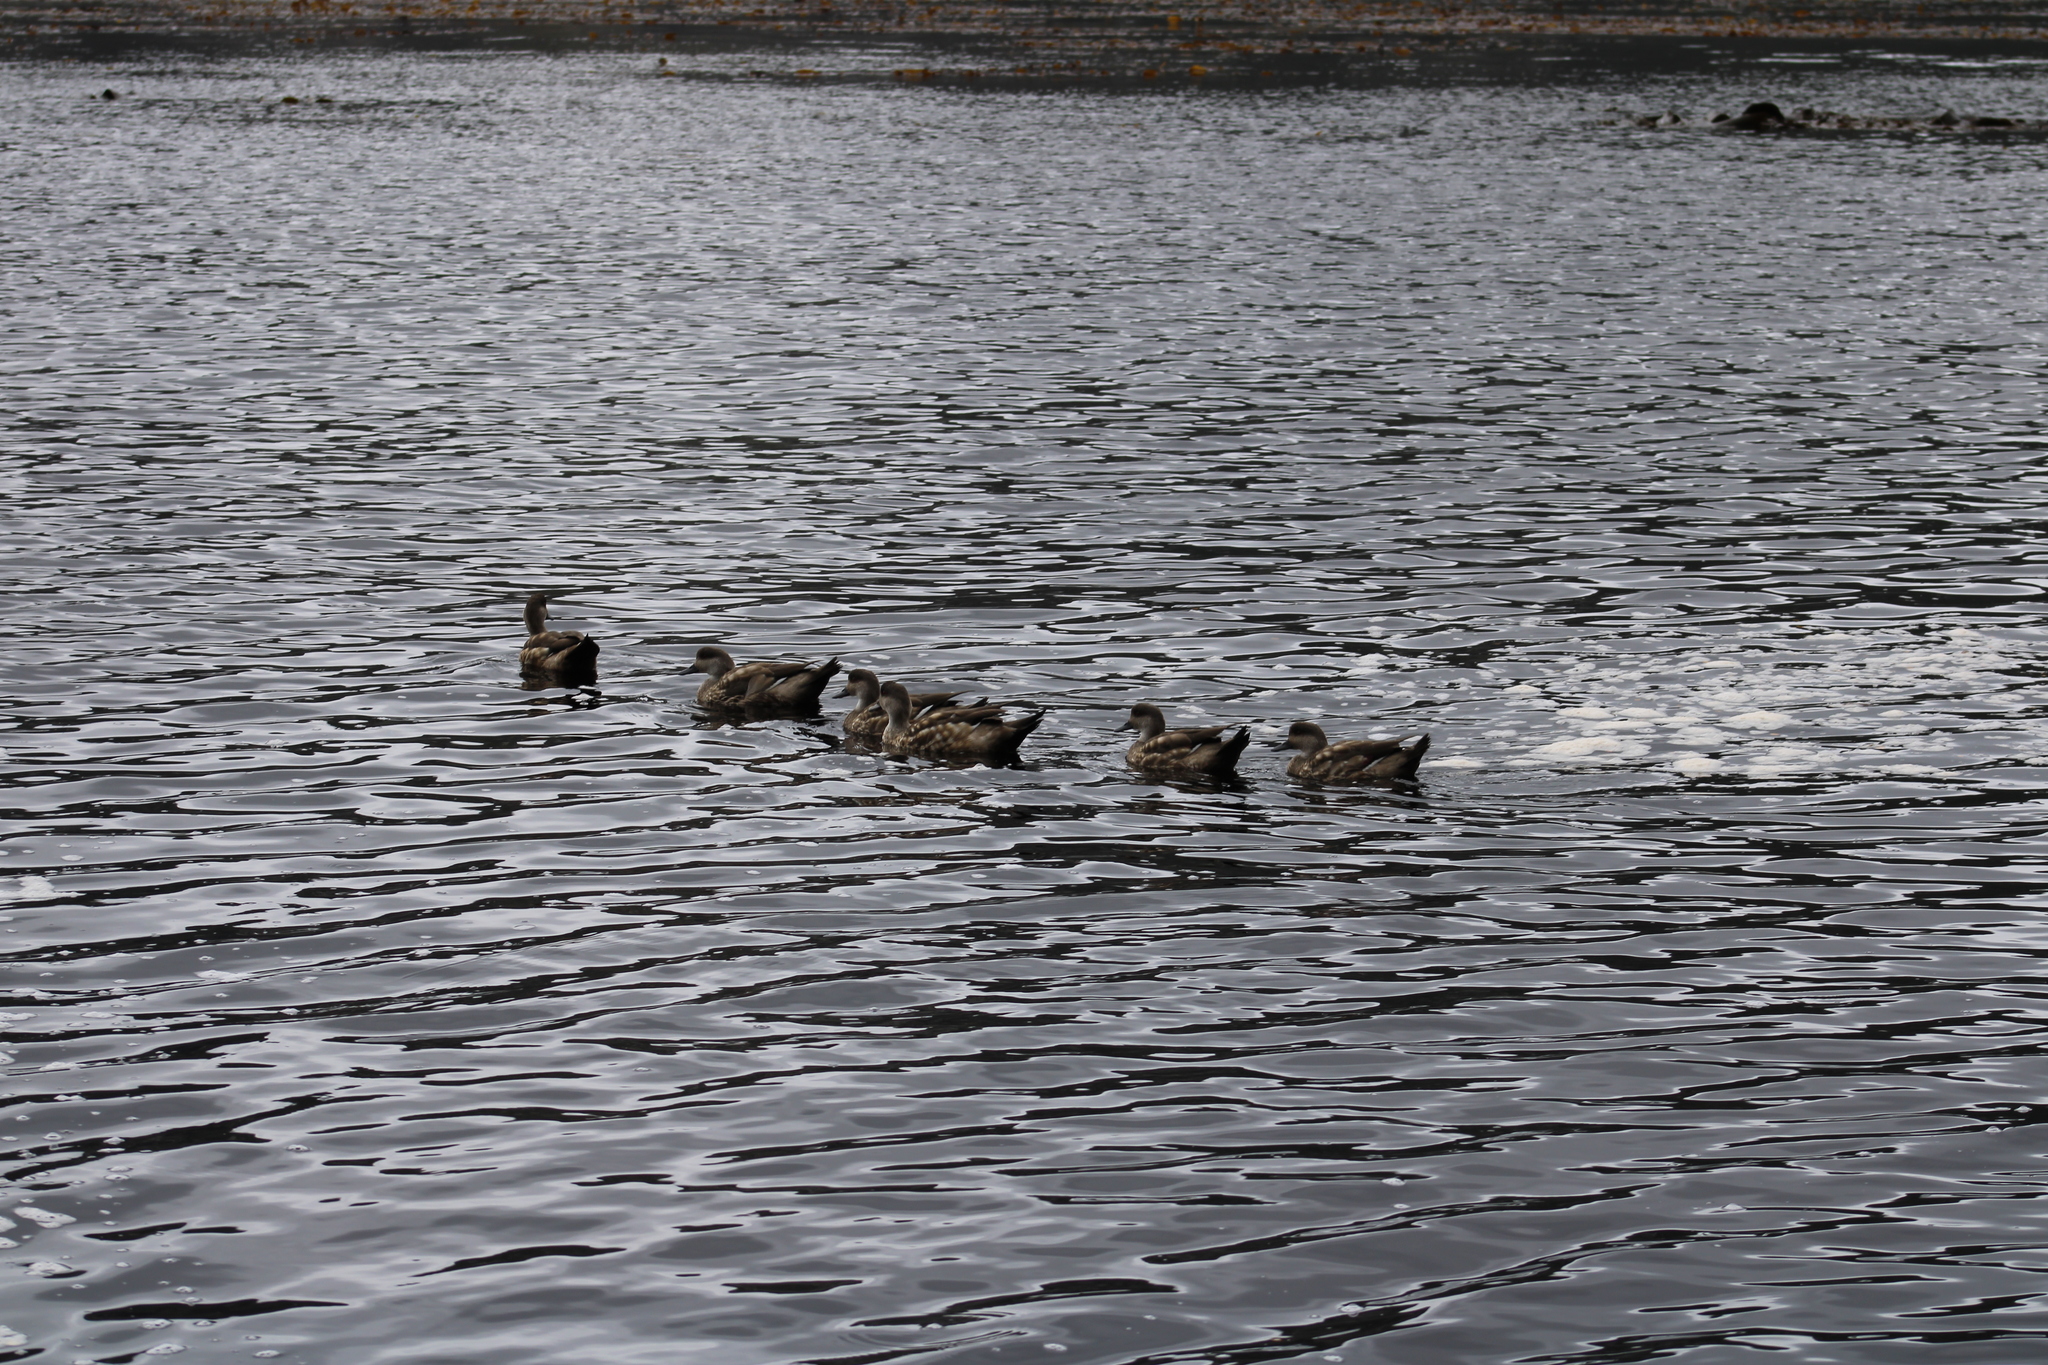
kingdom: Animalia
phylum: Chordata
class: Aves
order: Anseriformes
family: Anatidae
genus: Lophonetta
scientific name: Lophonetta specularioides
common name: Crested duck
